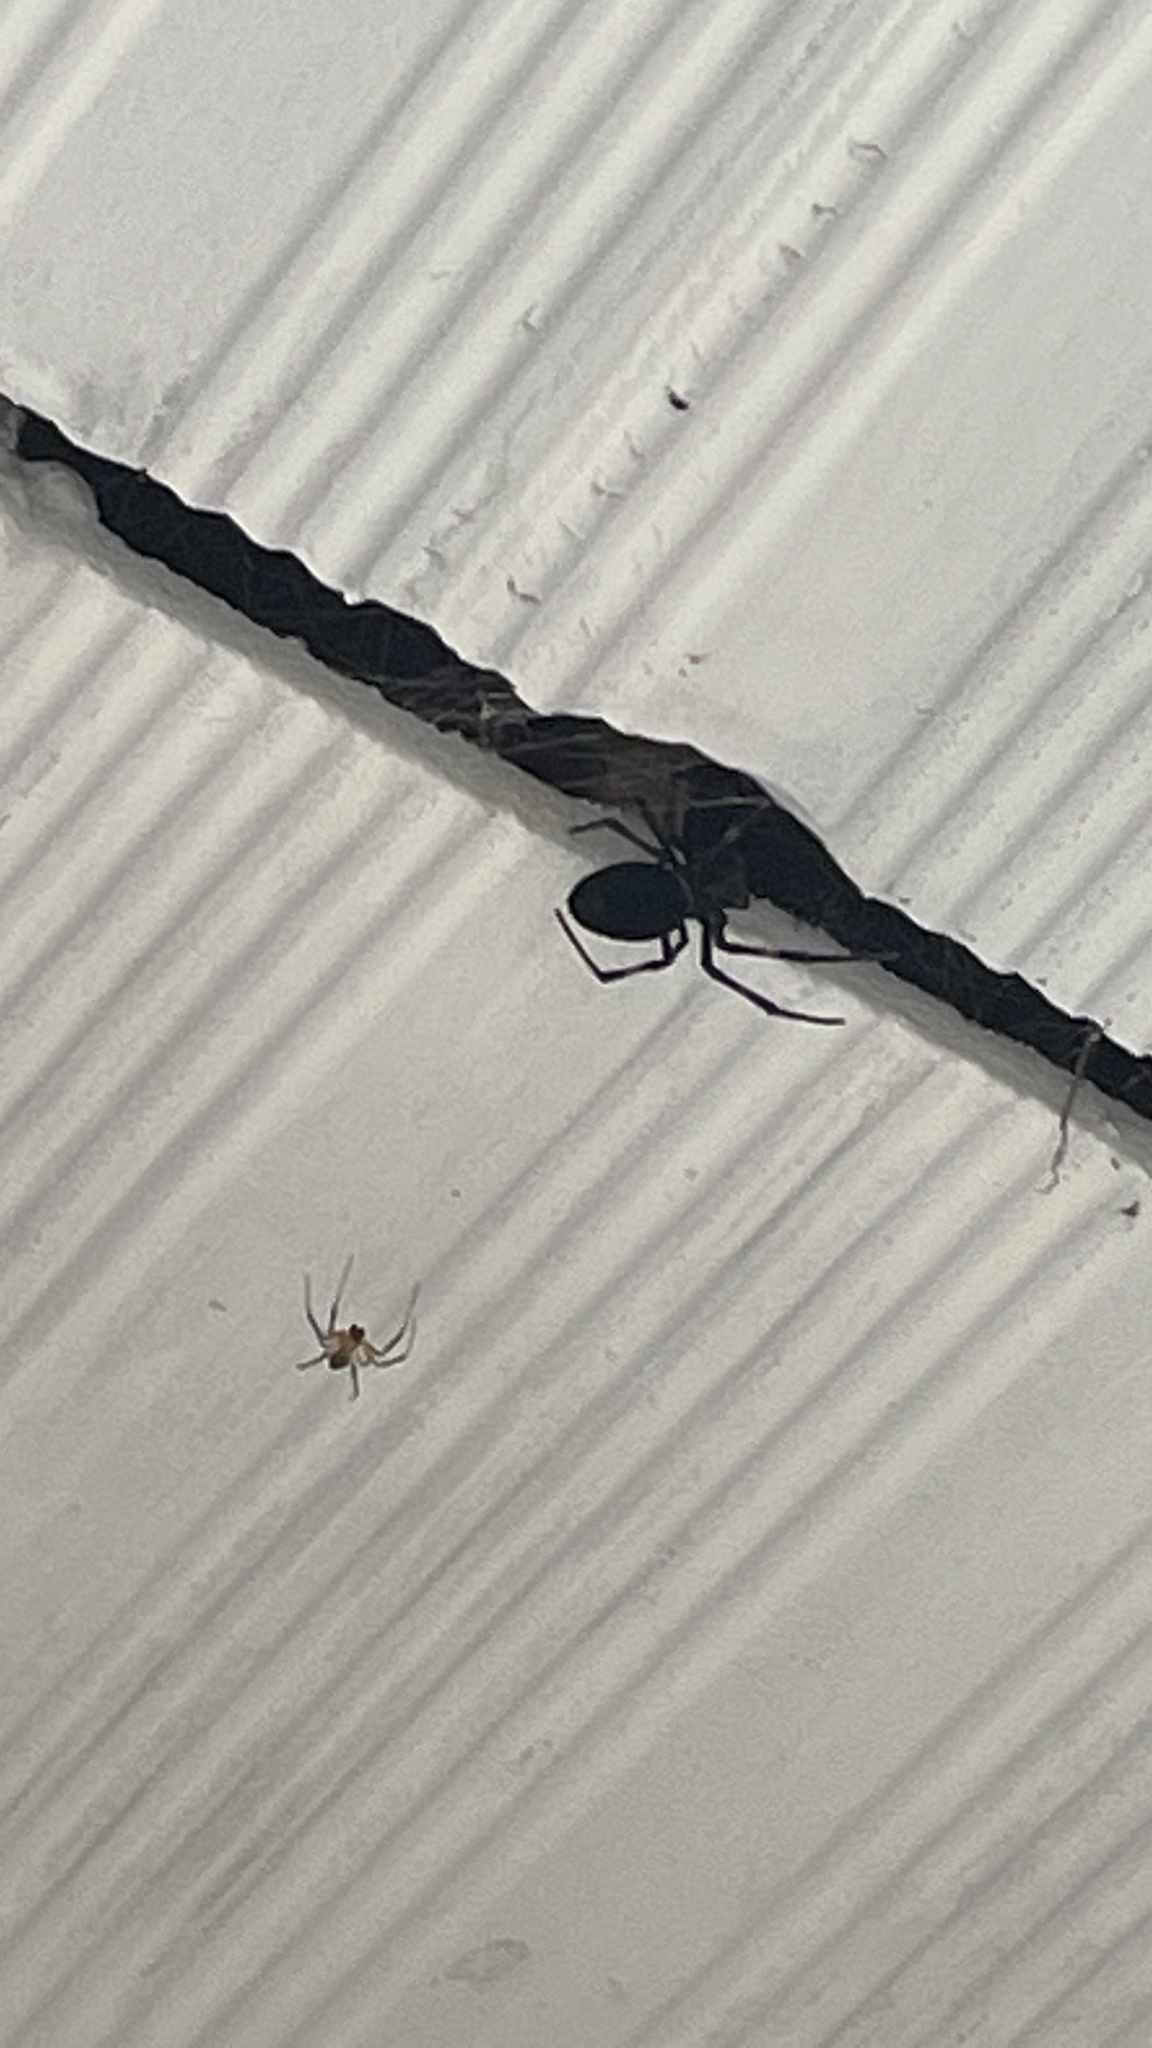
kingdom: Animalia
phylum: Arthropoda
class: Arachnida
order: Araneae
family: Araneidae
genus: Nephilingis
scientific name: Nephilingis cruentata
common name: African hermit spider
